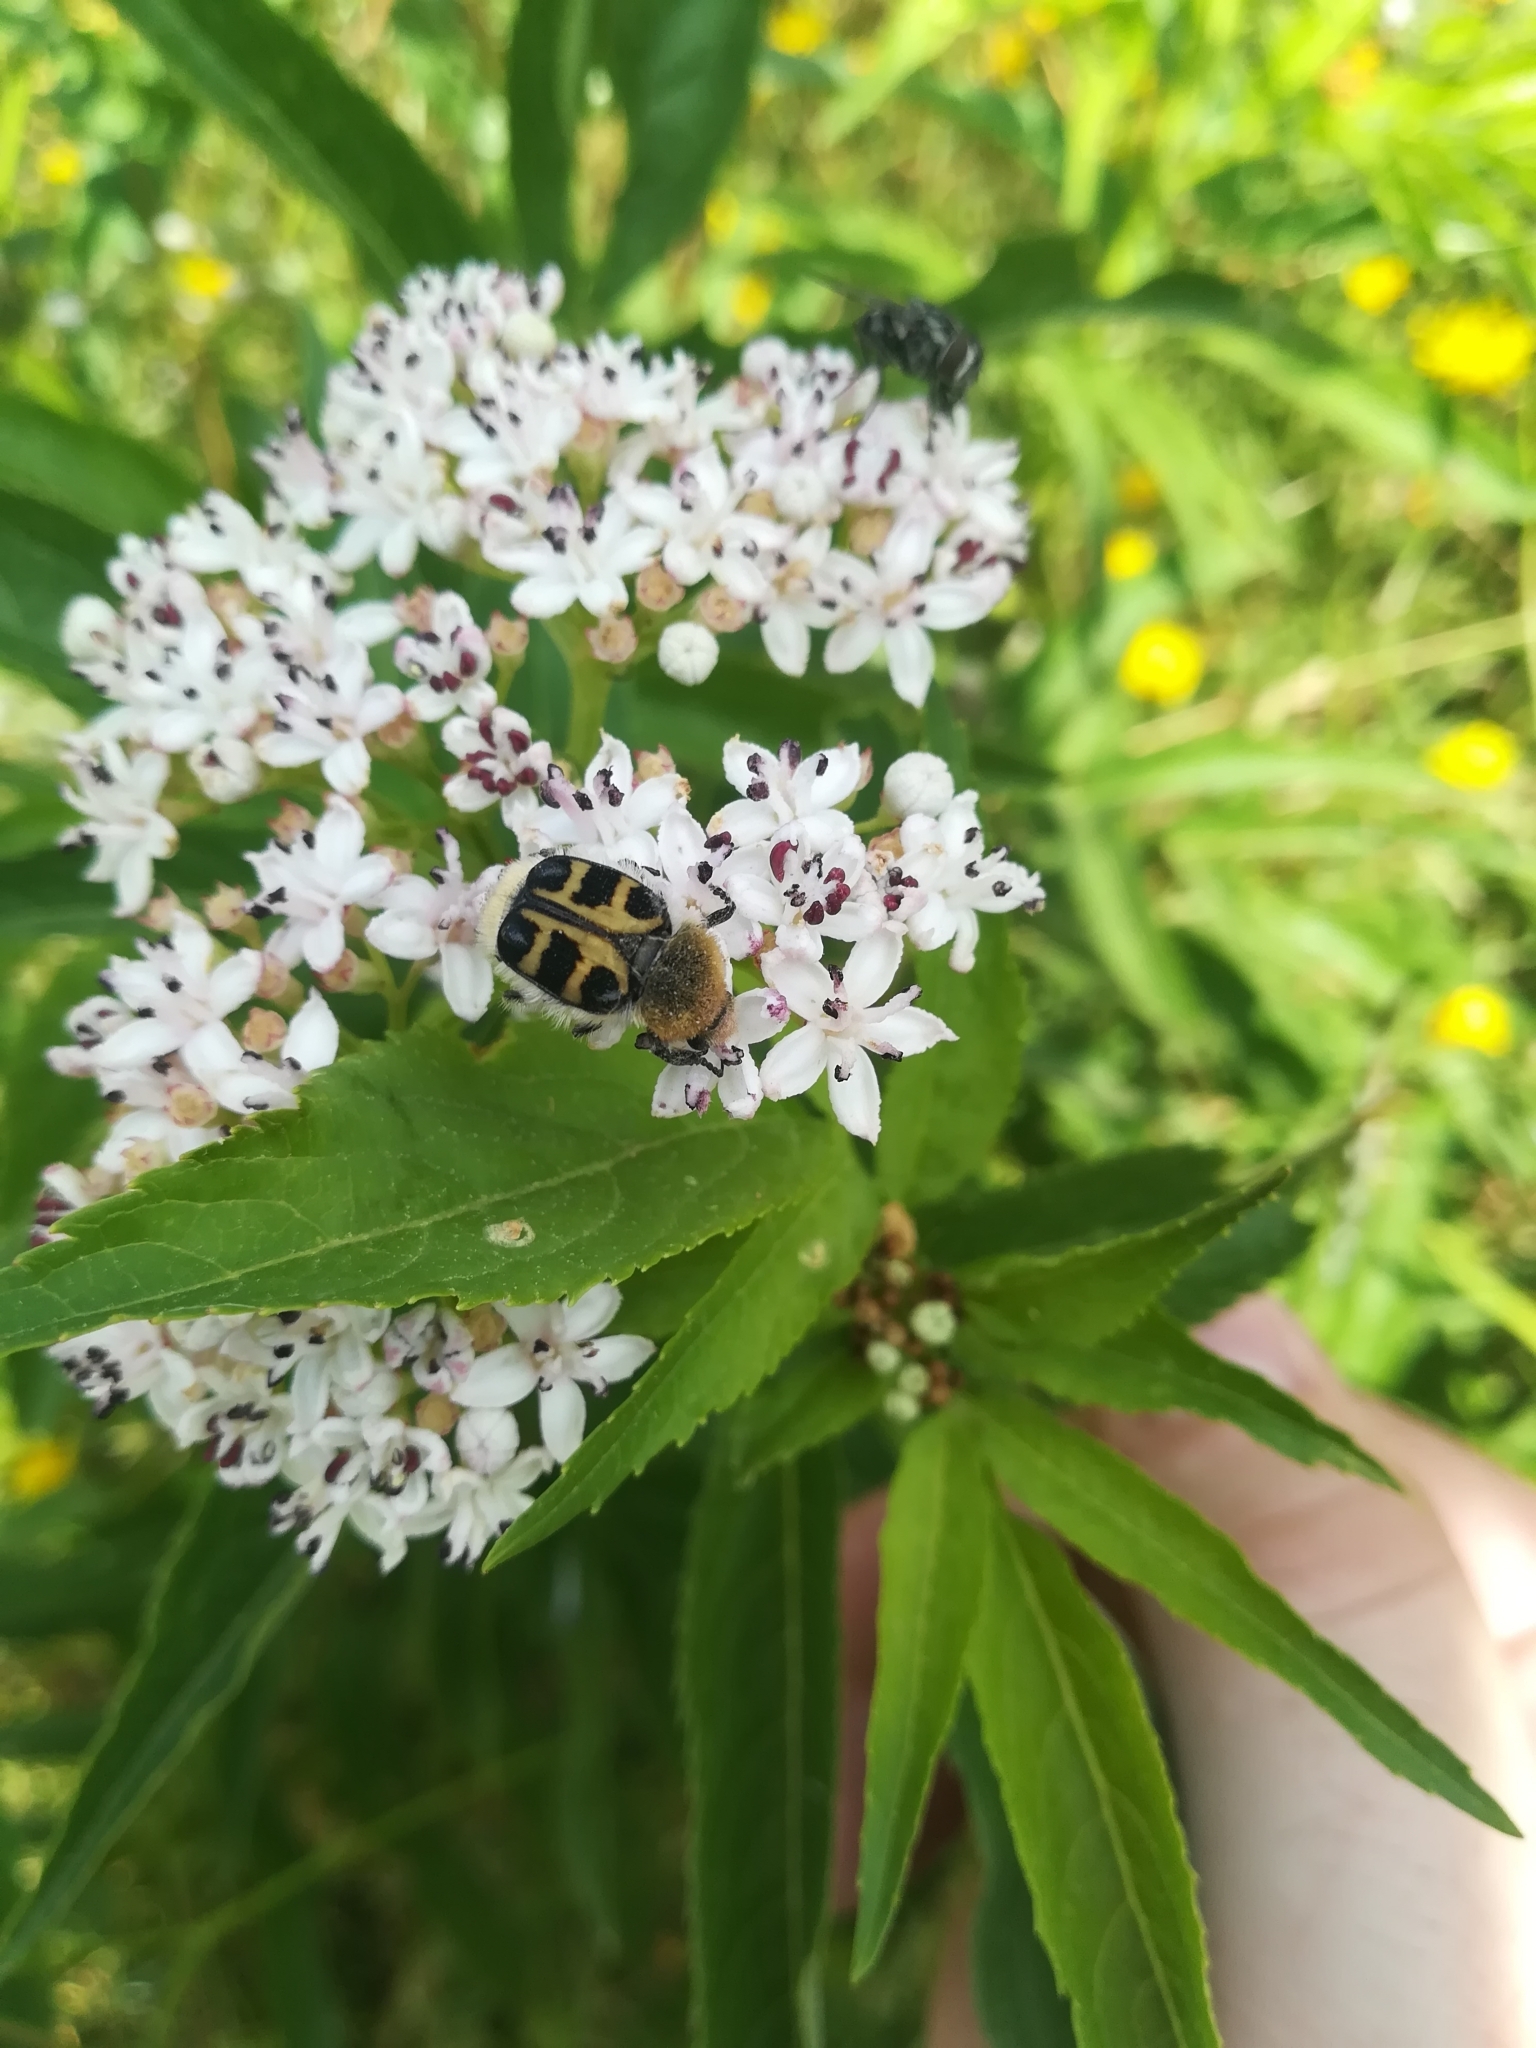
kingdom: Animalia
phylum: Arthropoda
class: Insecta
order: Coleoptera
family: Scarabaeidae
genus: Trichius
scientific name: Trichius gallicus
